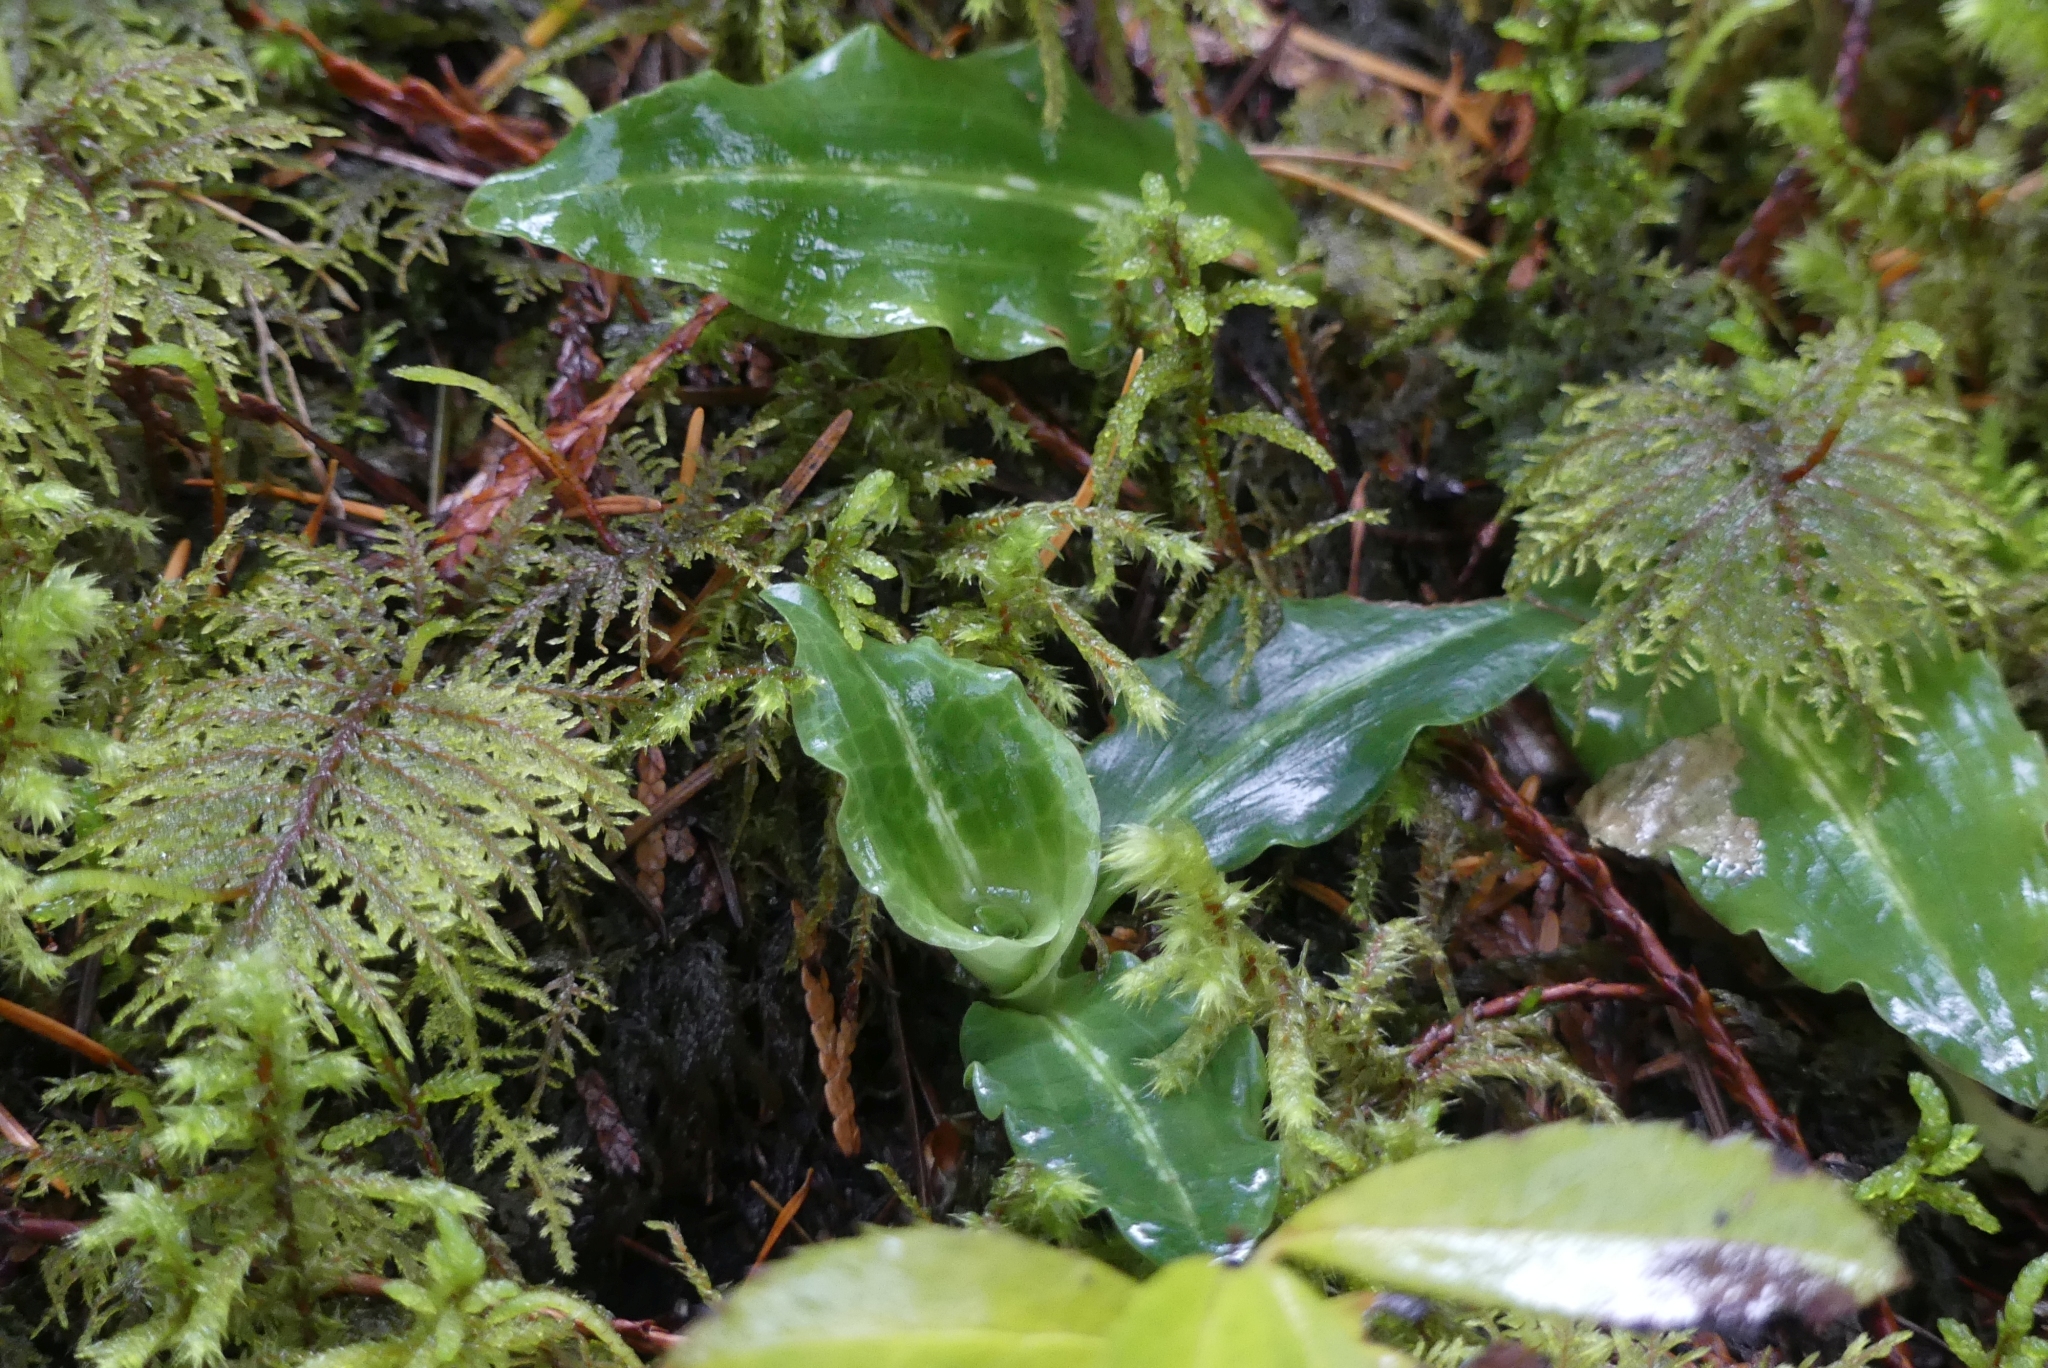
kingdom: Plantae
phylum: Tracheophyta
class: Liliopsida
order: Asparagales
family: Orchidaceae
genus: Goodyera
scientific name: Goodyera oblongifolia
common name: Giant rattlesnake-plantain
